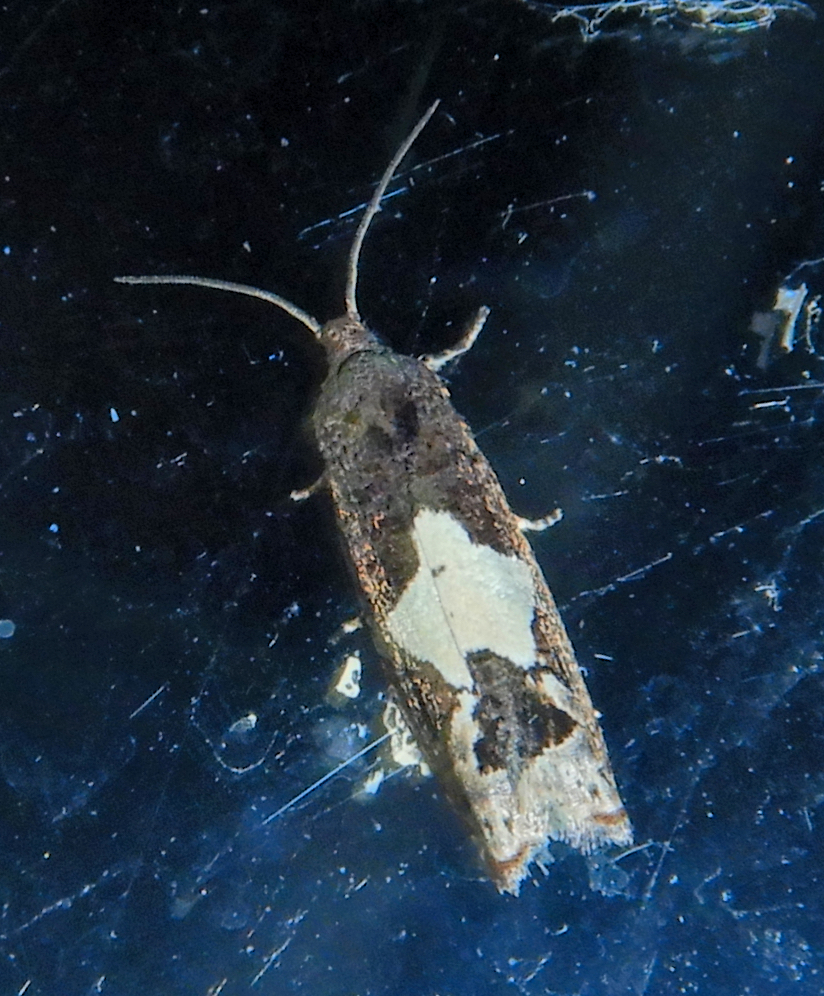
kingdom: Animalia
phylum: Arthropoda
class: Insecta
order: Lepidoptera
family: Tortricidae
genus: Epiblema
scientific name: Epiblema otiosana
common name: Bidens borer moth
